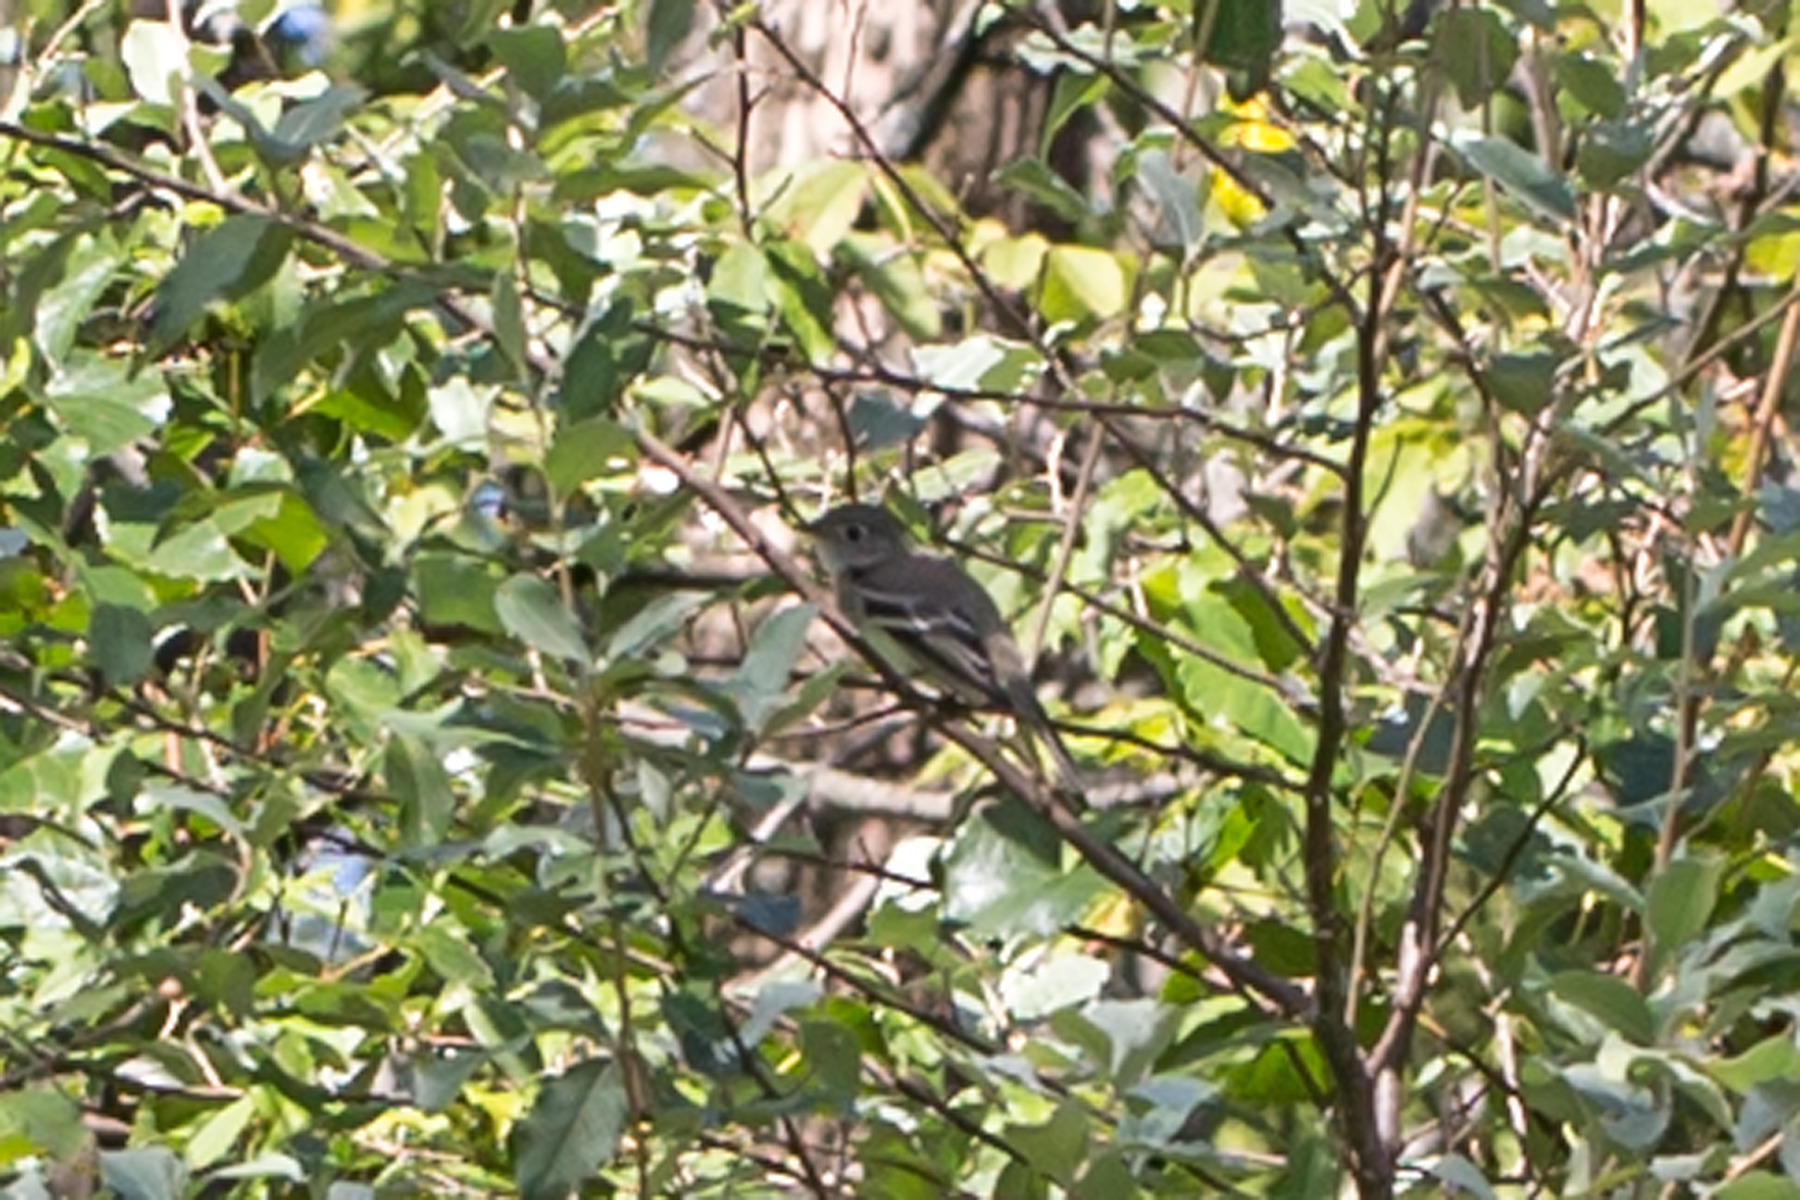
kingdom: Animalia
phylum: Chordata
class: Aves
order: Passeriformes
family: Tyrannidae
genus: Empidonax
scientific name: Empidonax minimus
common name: Least flycatcher
